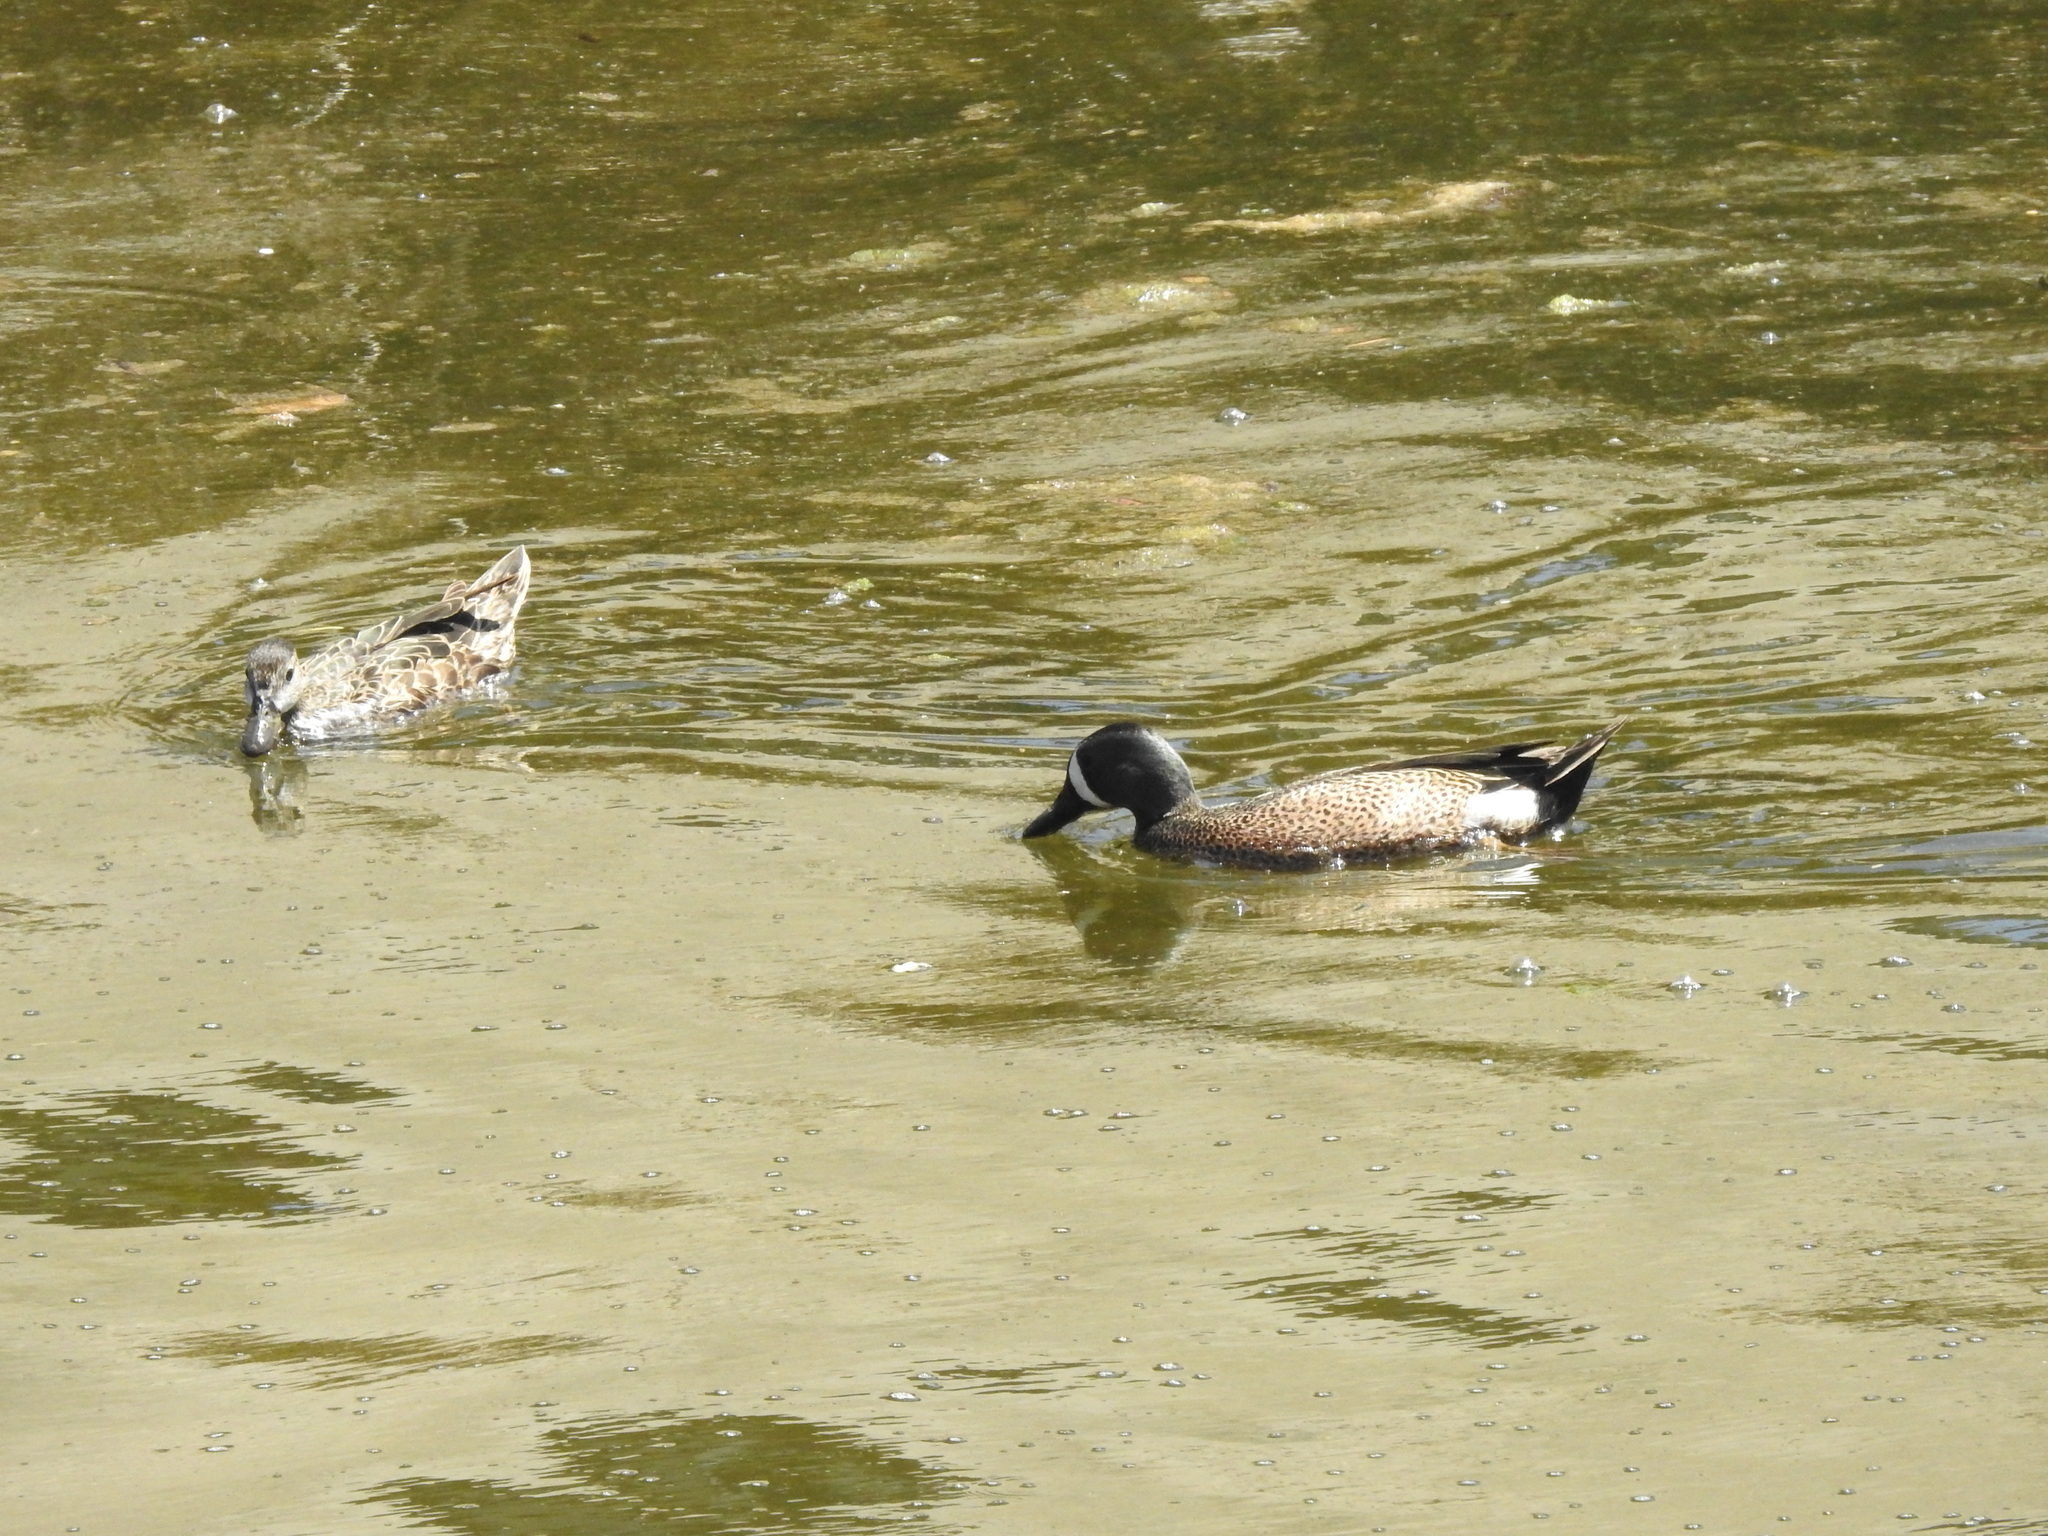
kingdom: Animalia
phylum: Chordata
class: Aves
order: Anseriformes
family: Anatidae
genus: Spatula
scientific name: Spatula discors
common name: Blue-winged teal
